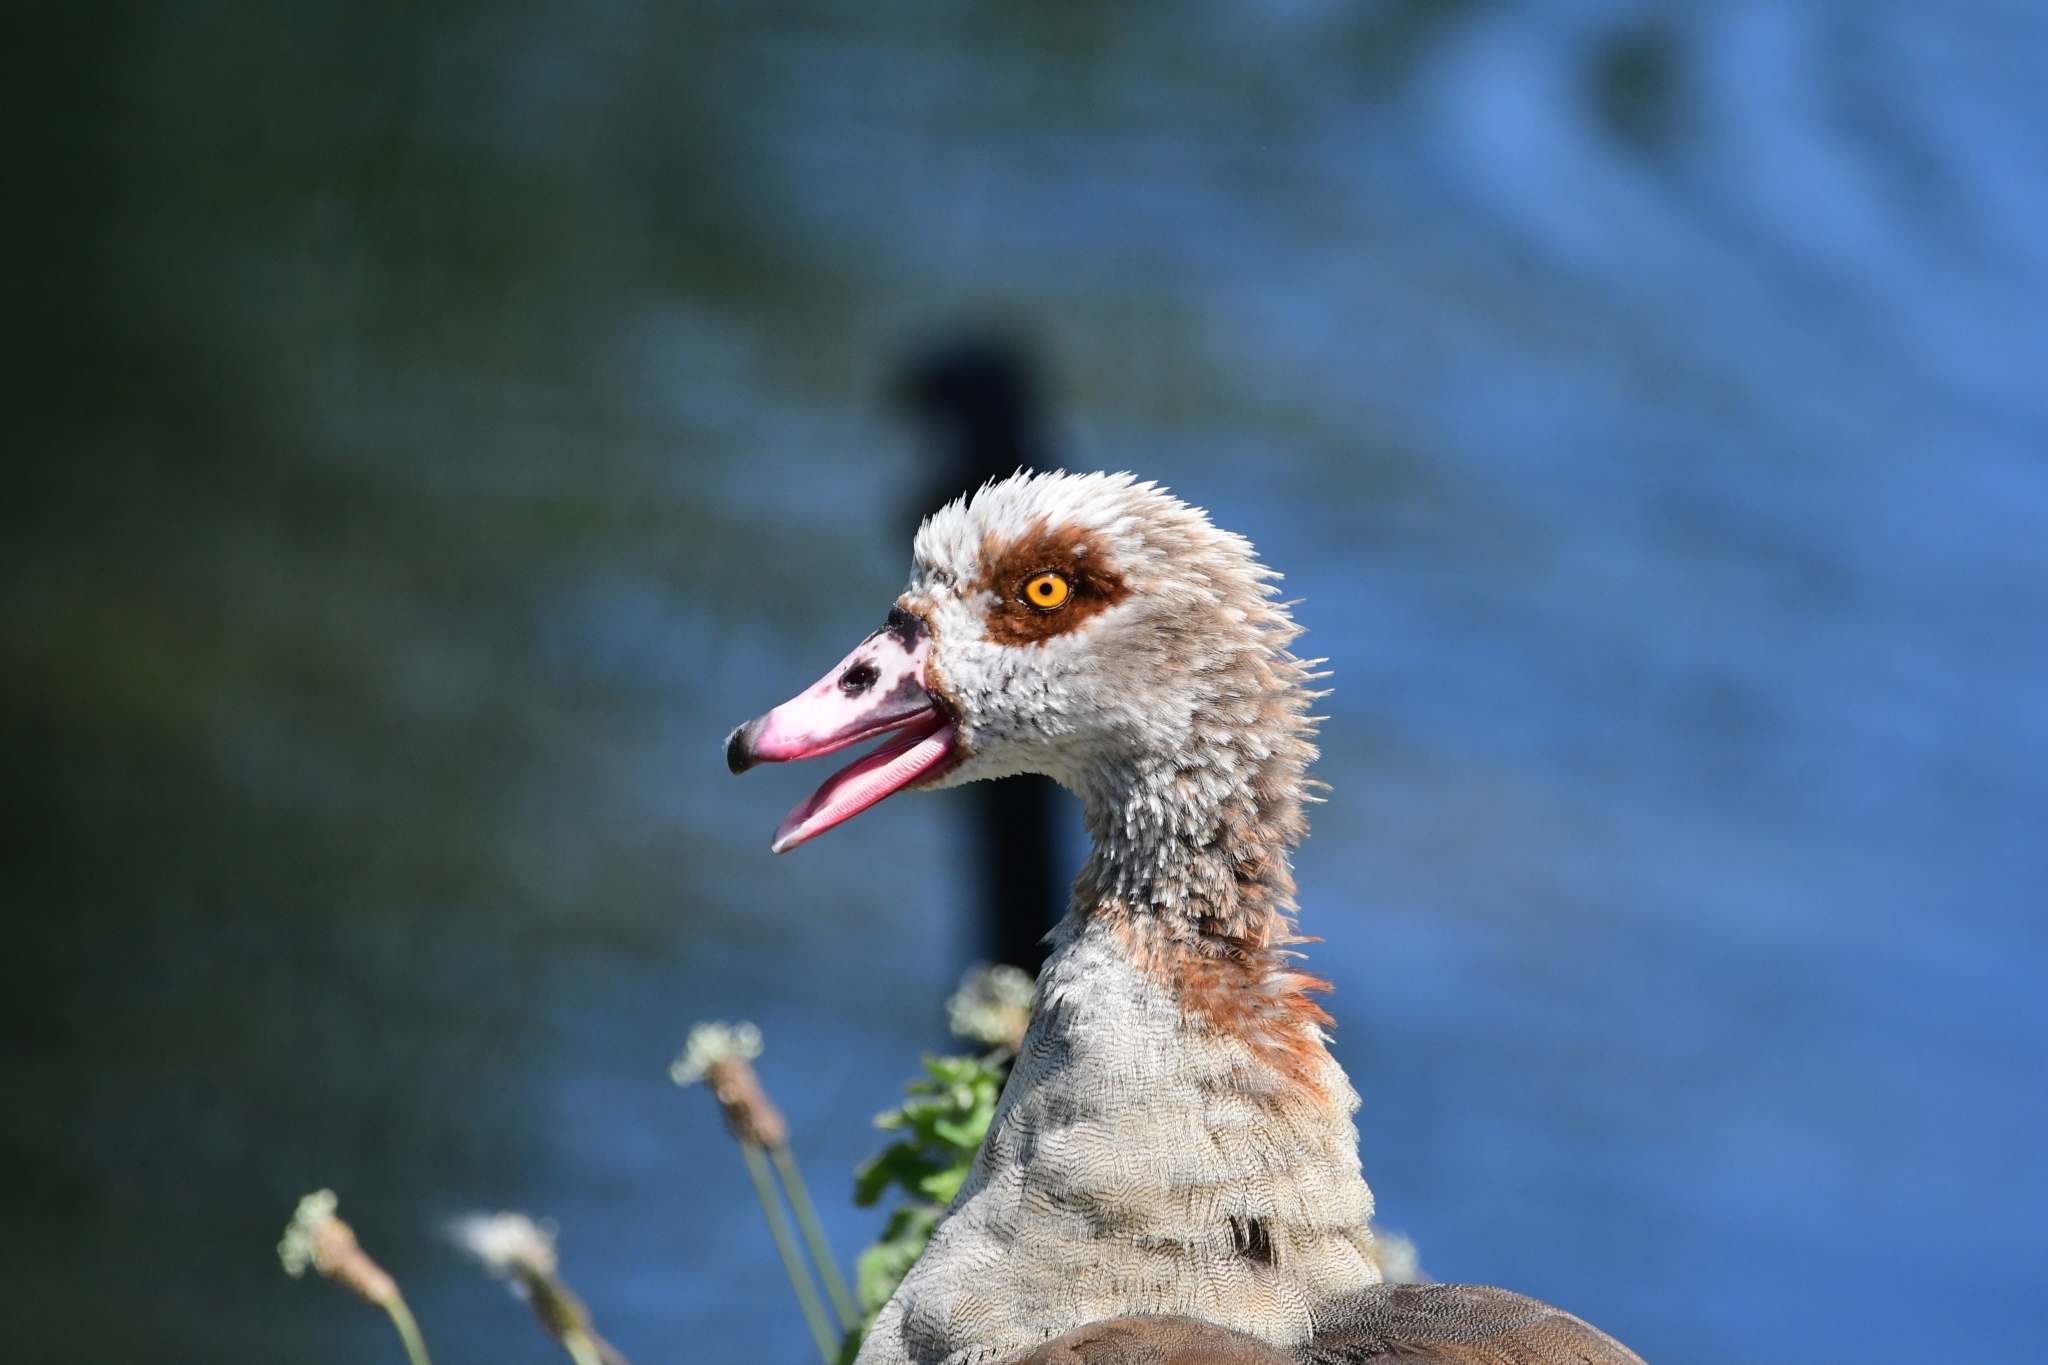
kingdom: Animalia
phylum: Chordata
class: Aves
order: Anseriformes
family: Anatidae
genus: Alopochen
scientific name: Alopochen aegyptiaca
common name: Egyptian goose
